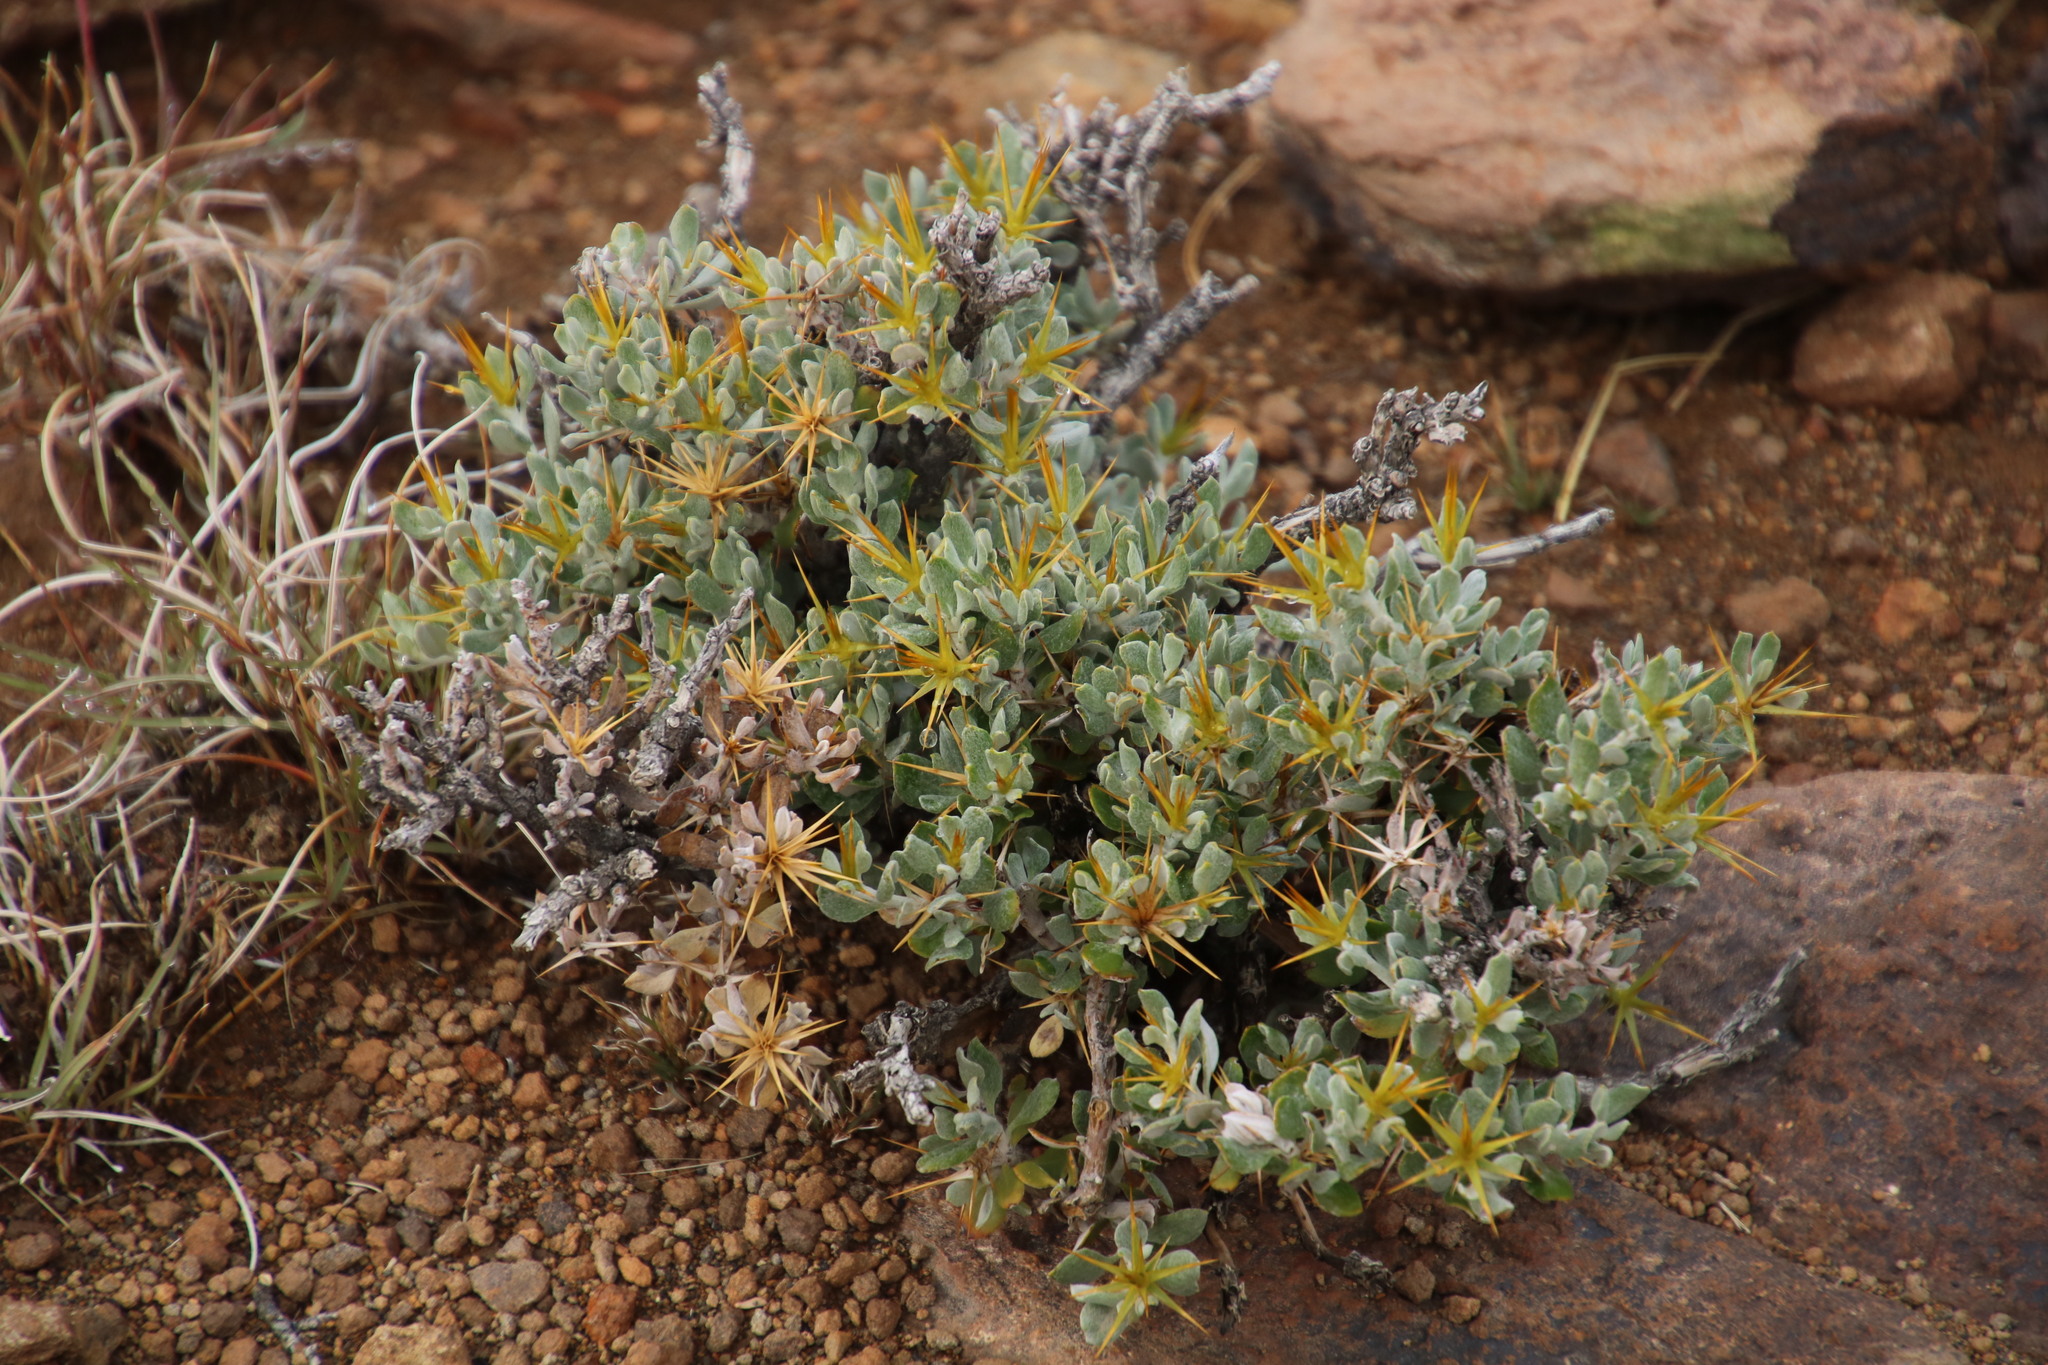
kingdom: Plantae
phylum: Tracheophyta
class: Magnoliopsida
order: Asterales
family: Asteraceae
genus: Macledium
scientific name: Macledium spinosum
